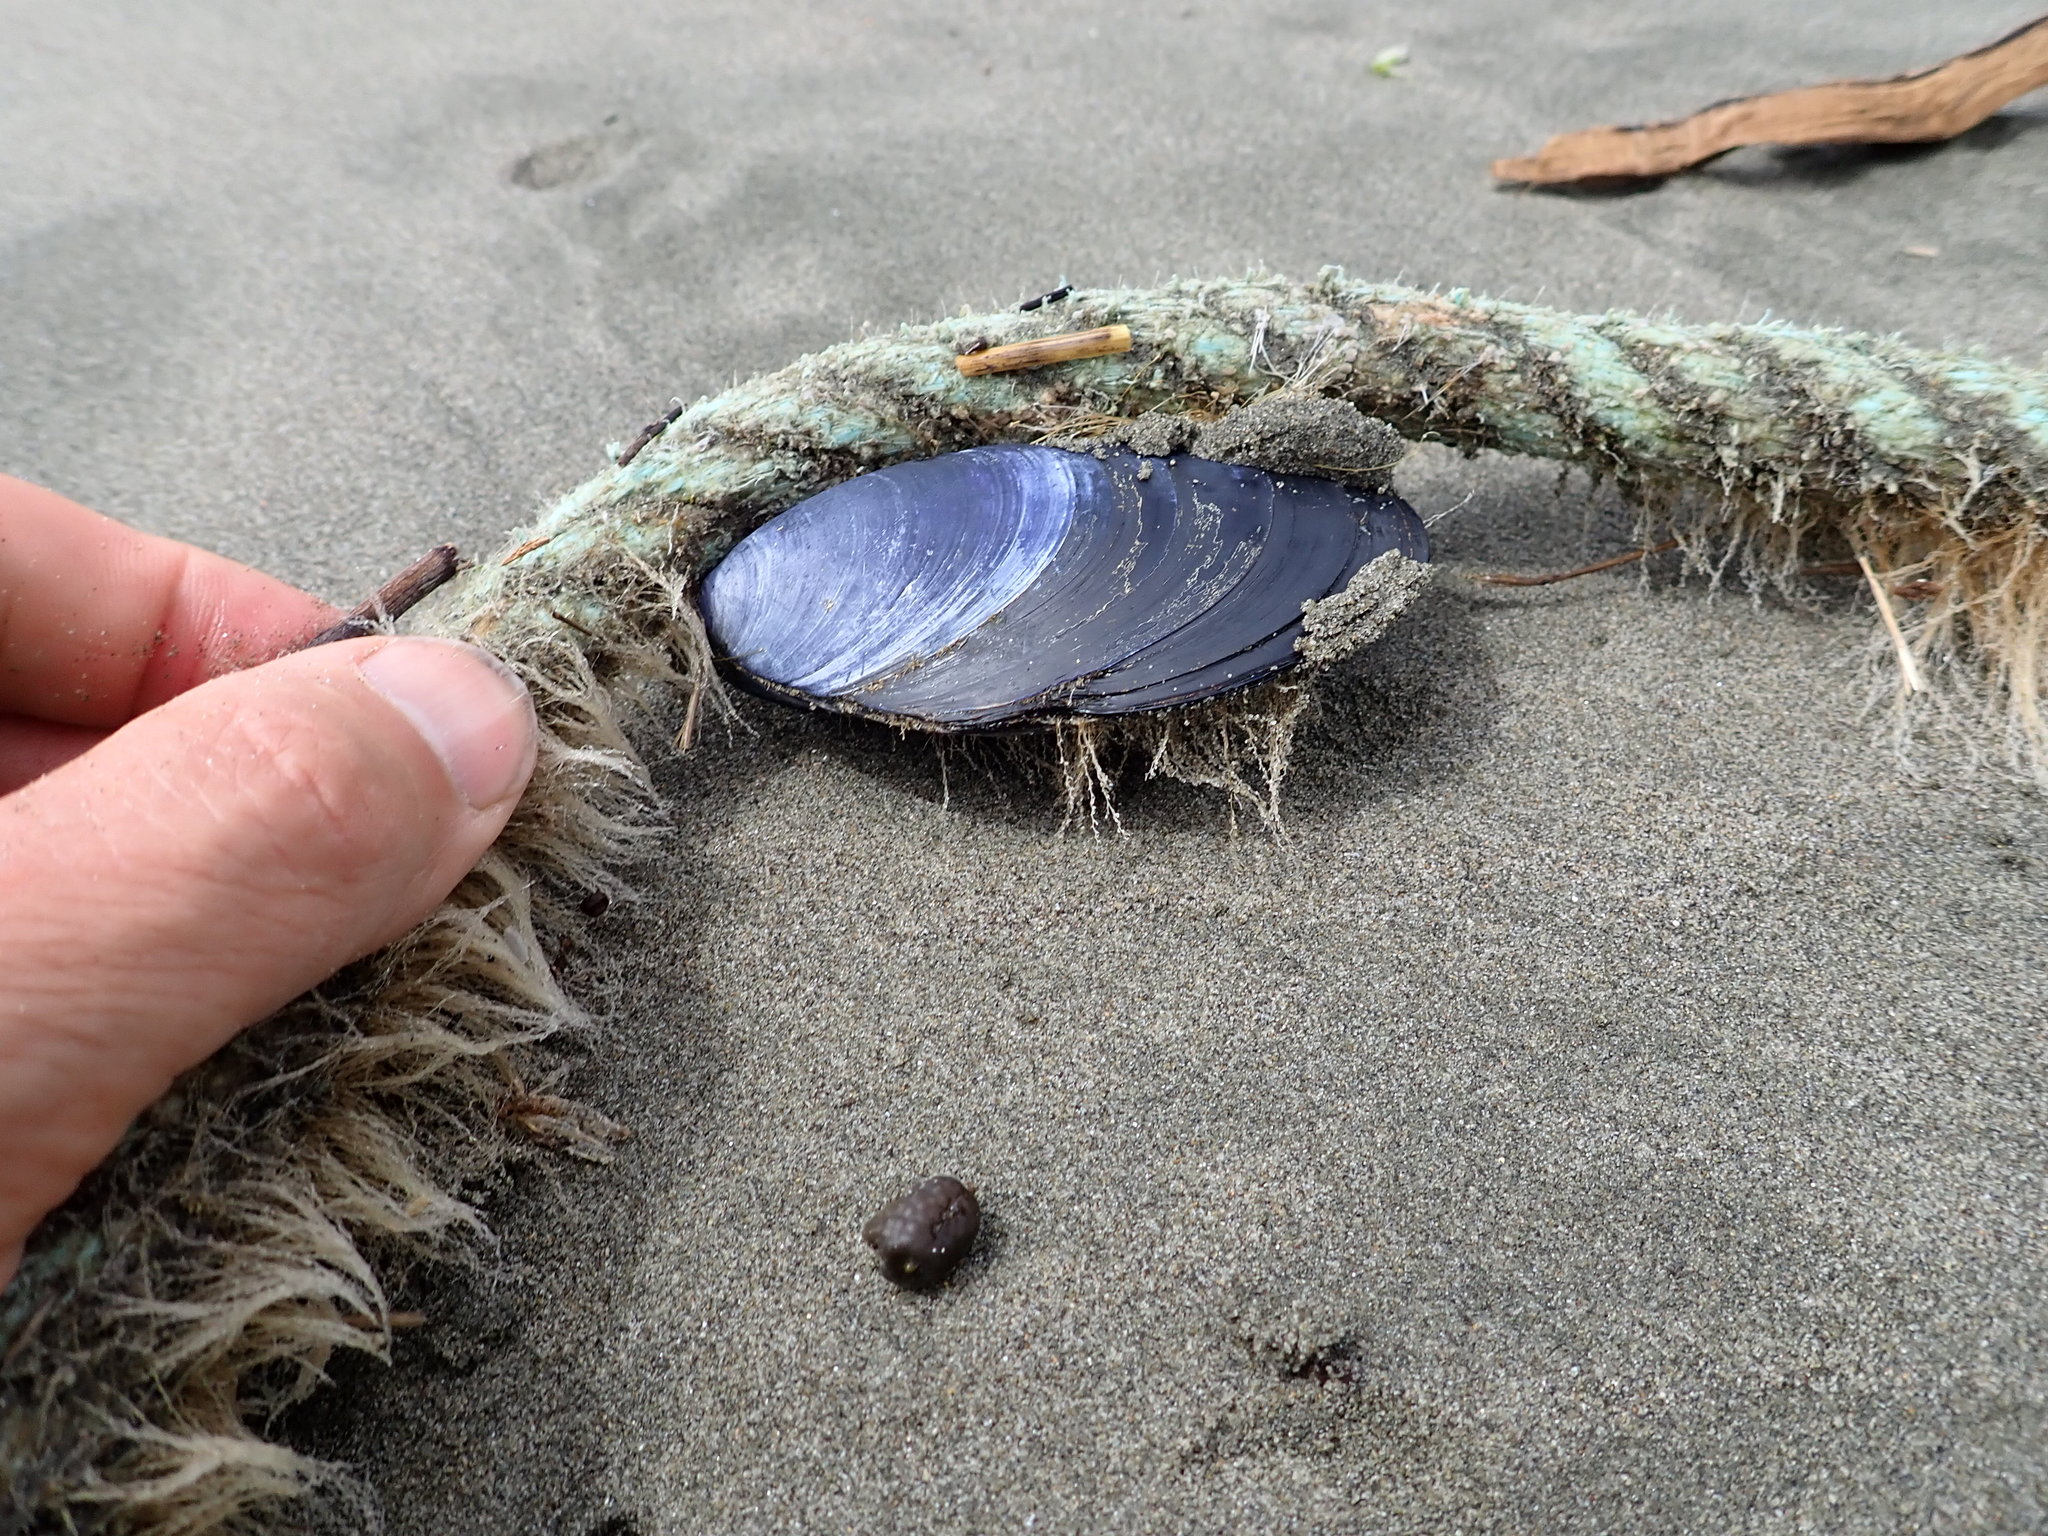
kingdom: Animalia
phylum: Mollusca
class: Bivalvia
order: Mytilida
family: Mytilidae
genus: Mytilus
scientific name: Mytilus planulatus
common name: Australian mussel
